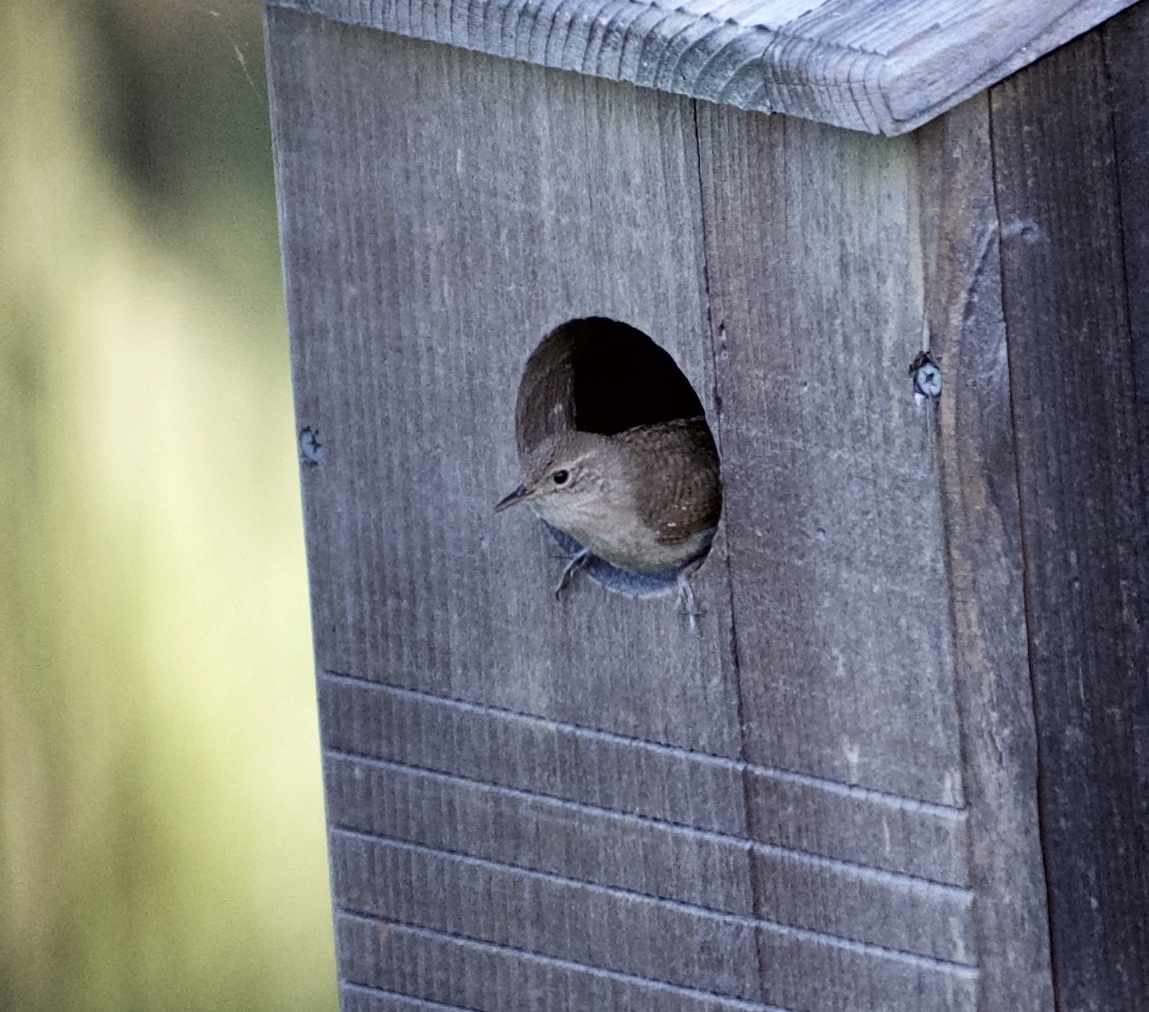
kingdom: Animalia
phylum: Chordata
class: Aves
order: Passeriformes
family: Troglodytidae
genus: Troglodytes
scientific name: Troglodytes aedon
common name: House wren
